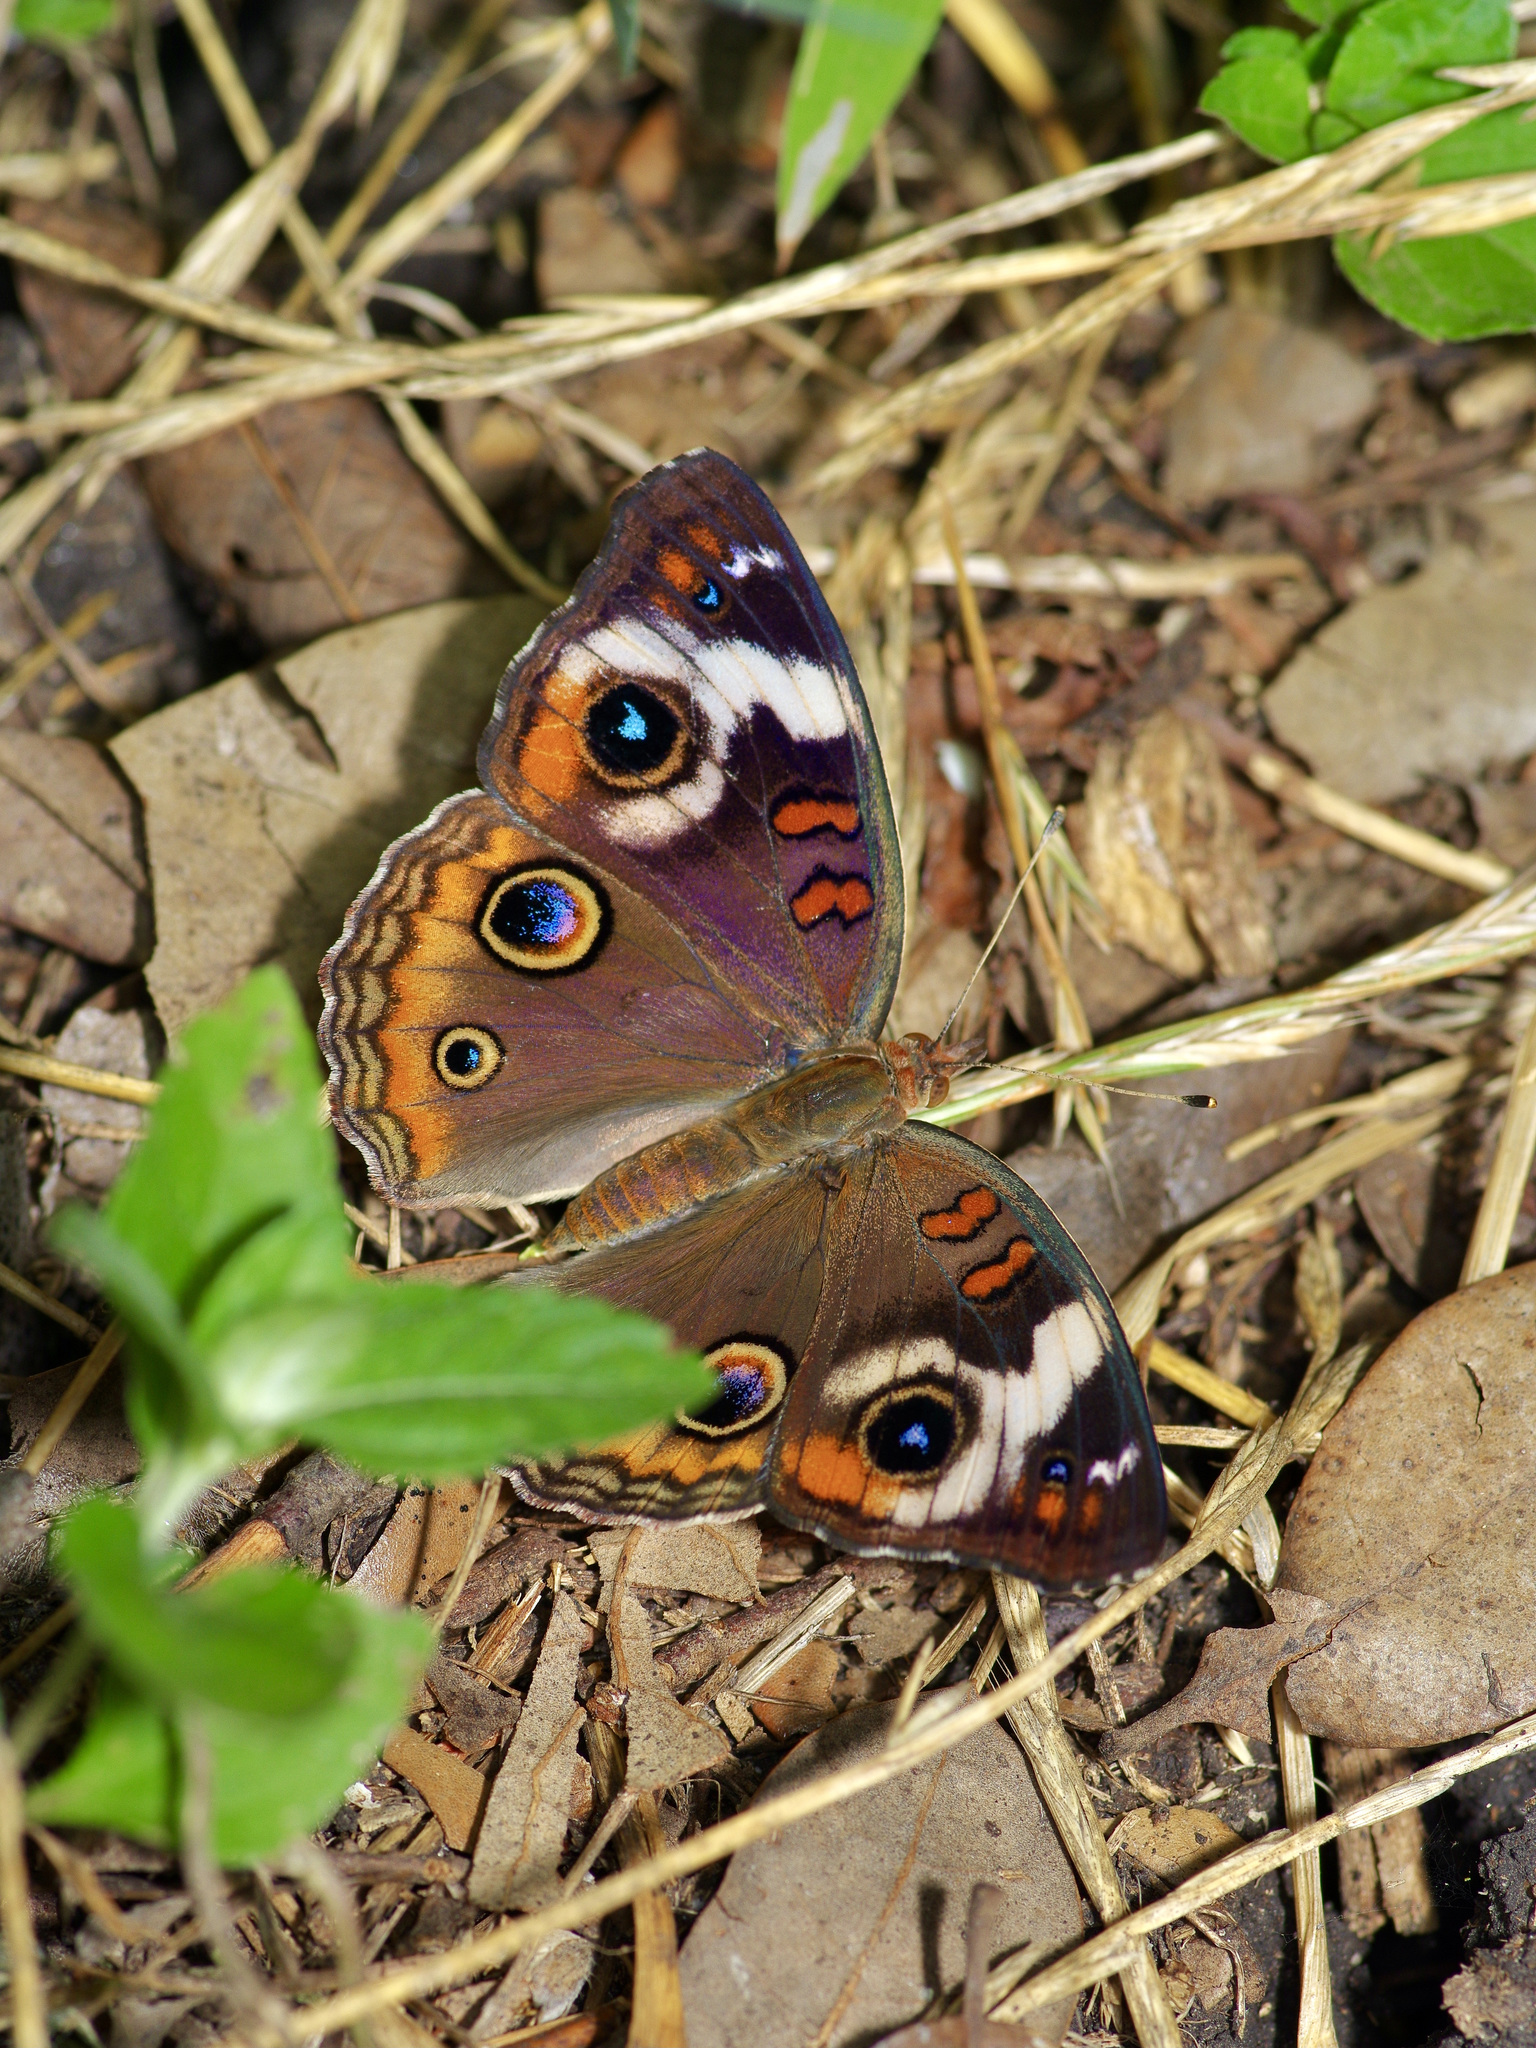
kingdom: Animalia
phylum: Arthropoda
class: Insecta
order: Lepidoptera
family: Nymphalidae
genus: Junonia
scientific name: Junonia coenia
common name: Common buckeye
